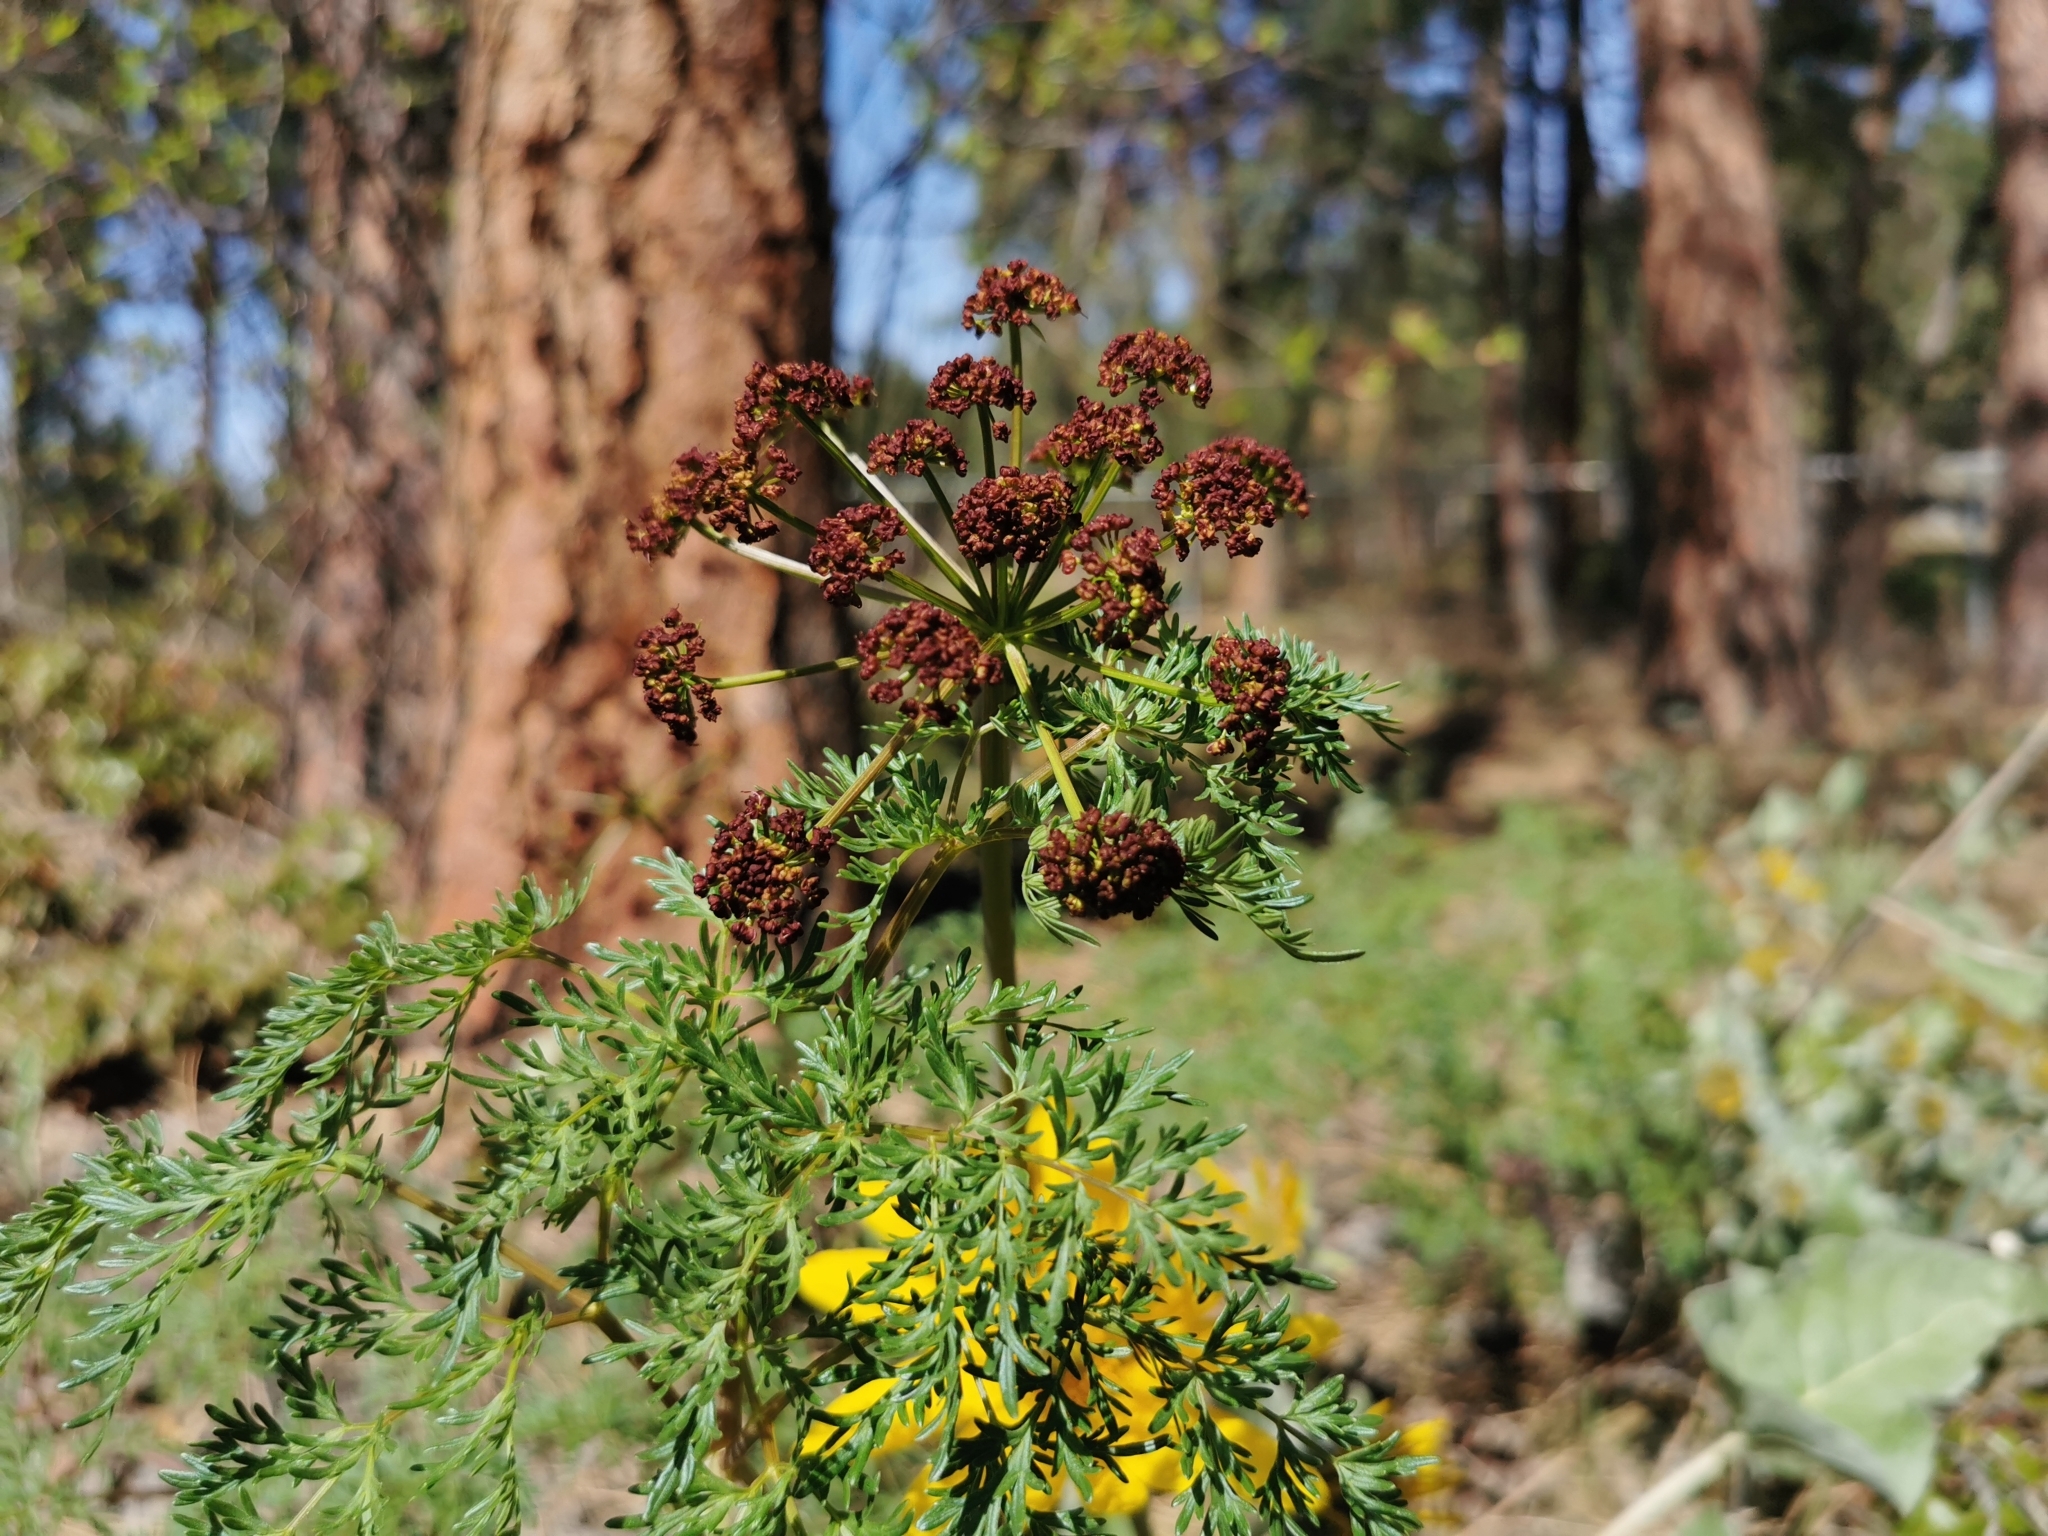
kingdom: Plantae
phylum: Tracheophyta
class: Magnoliopsida
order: Apiales
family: Apiaceae
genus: Lomatium
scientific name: Lomatium multifidum
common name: Carrot-leaved biscuitroot
